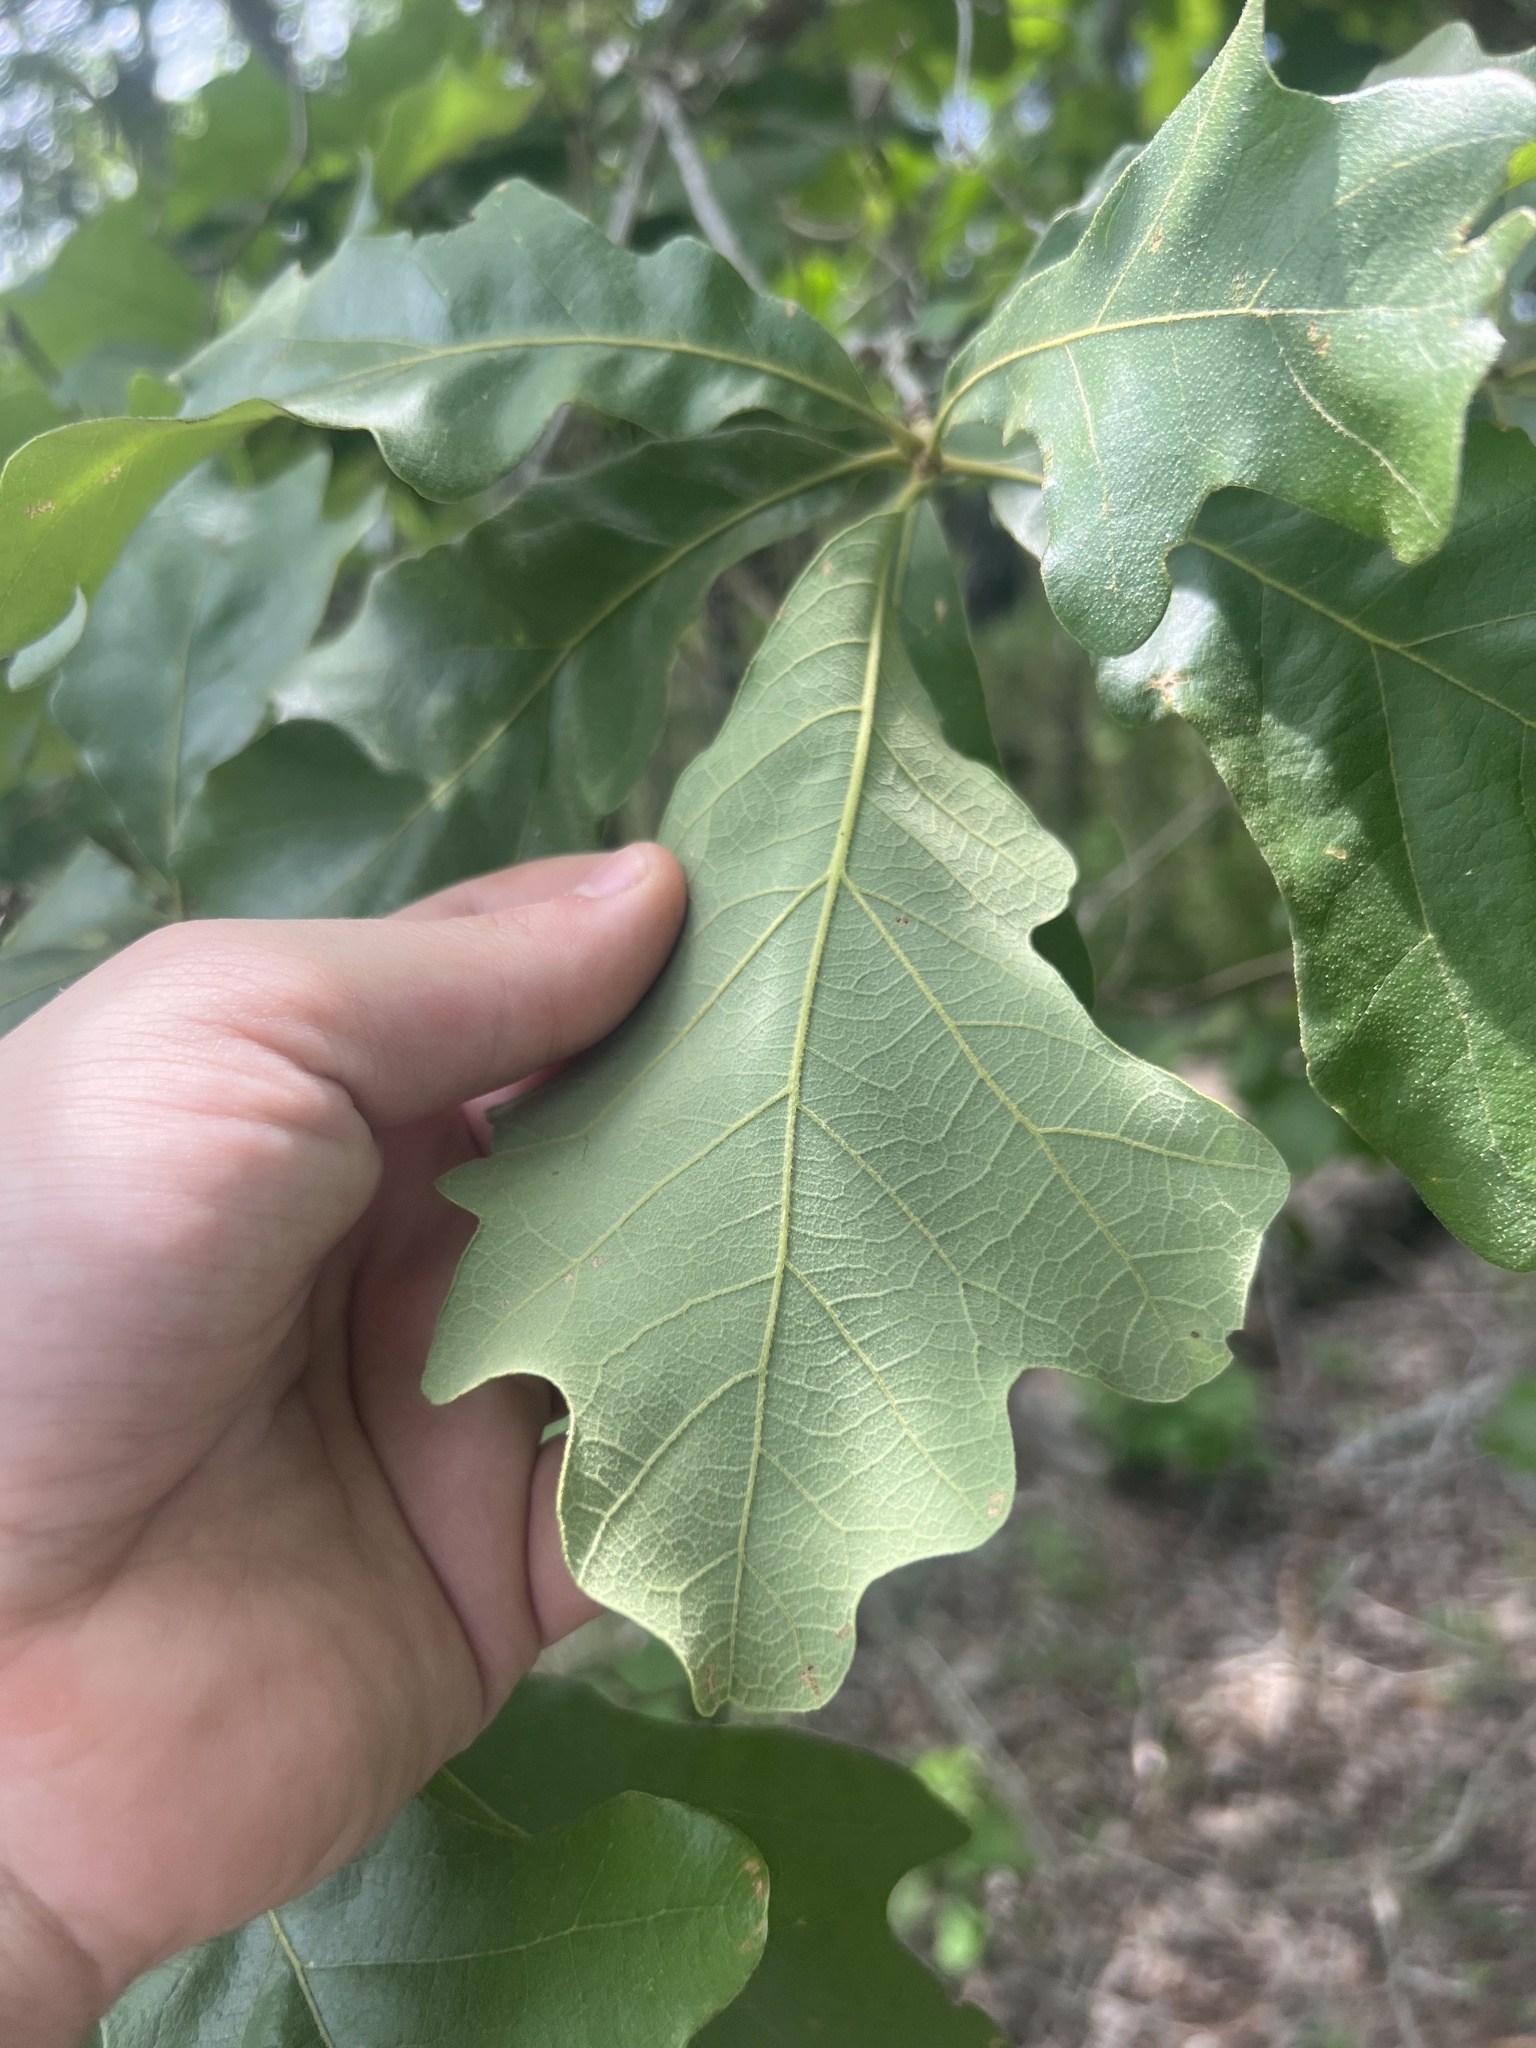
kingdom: Plantae
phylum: Tracheophyta
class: Magnoliopsida
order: Fagales
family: Fagaceae
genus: Quercus
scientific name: Quercus stellata
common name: Post oak
